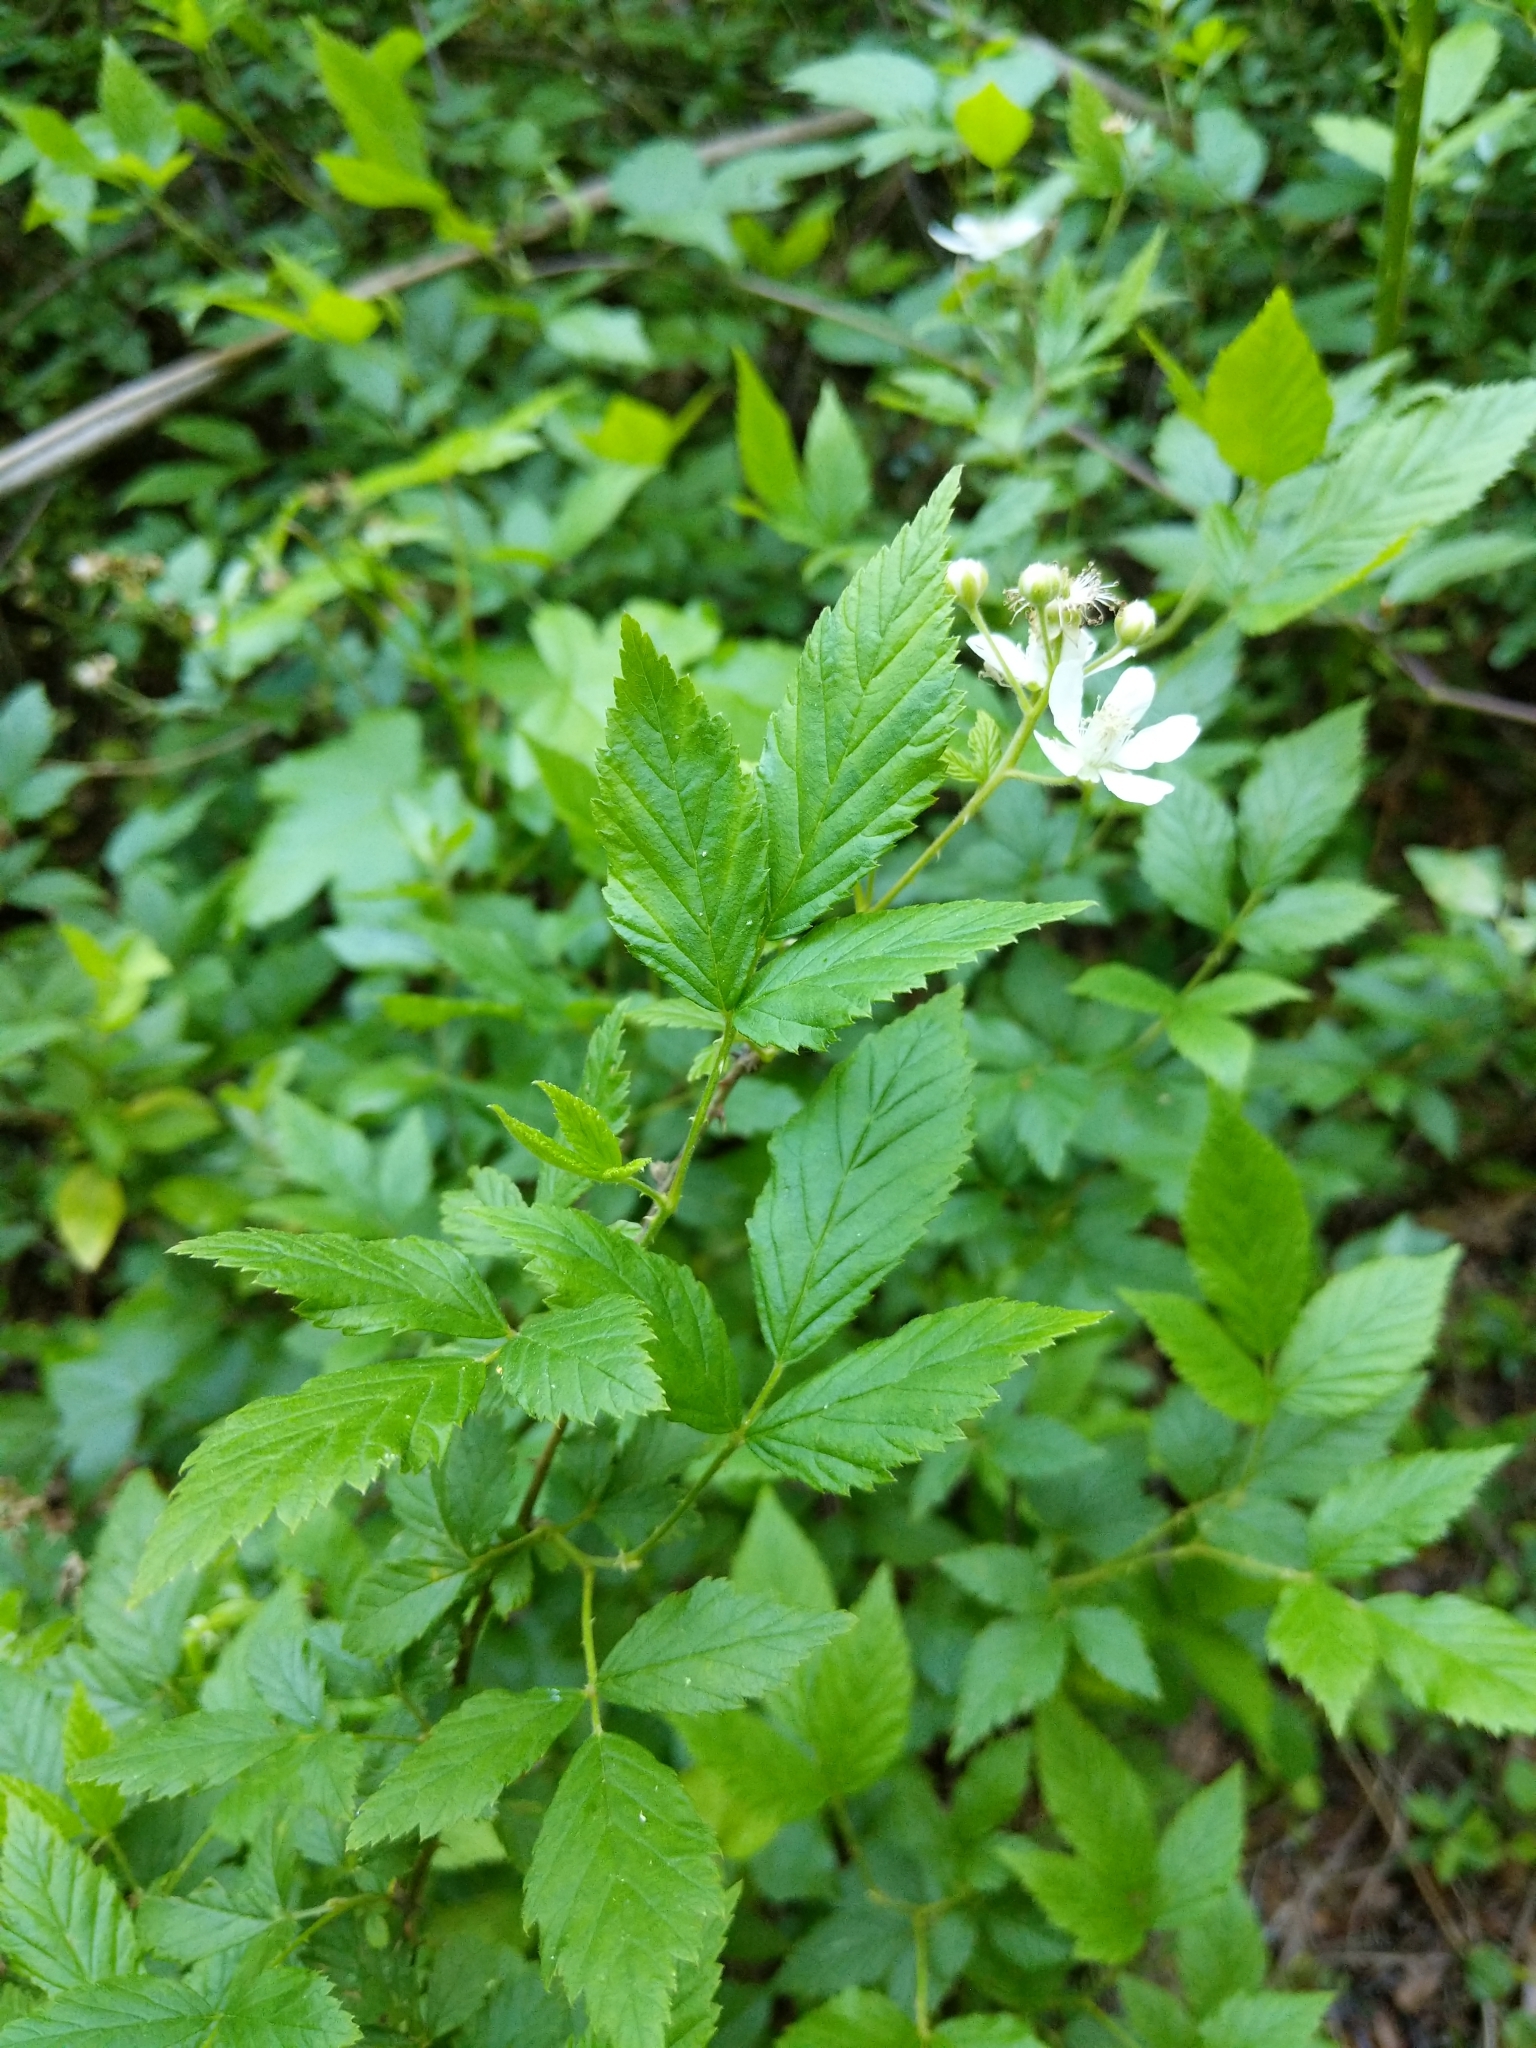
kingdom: Plantae
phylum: Tracheophyta
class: Magnoliopsida
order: Rosales
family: Rosaceae
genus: Rubus
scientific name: Rubus allegheniensis
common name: Allegheny blackberry
